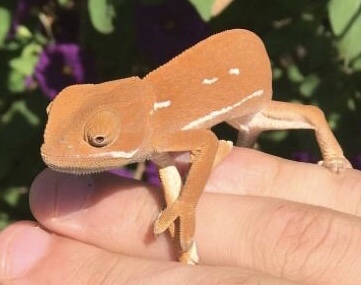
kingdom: Animalia
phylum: Chordata
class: Squamata
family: Chamaeleonidae
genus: Chamaeleo
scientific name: Chamaeleo dilepis
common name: Flapneck chameleon
